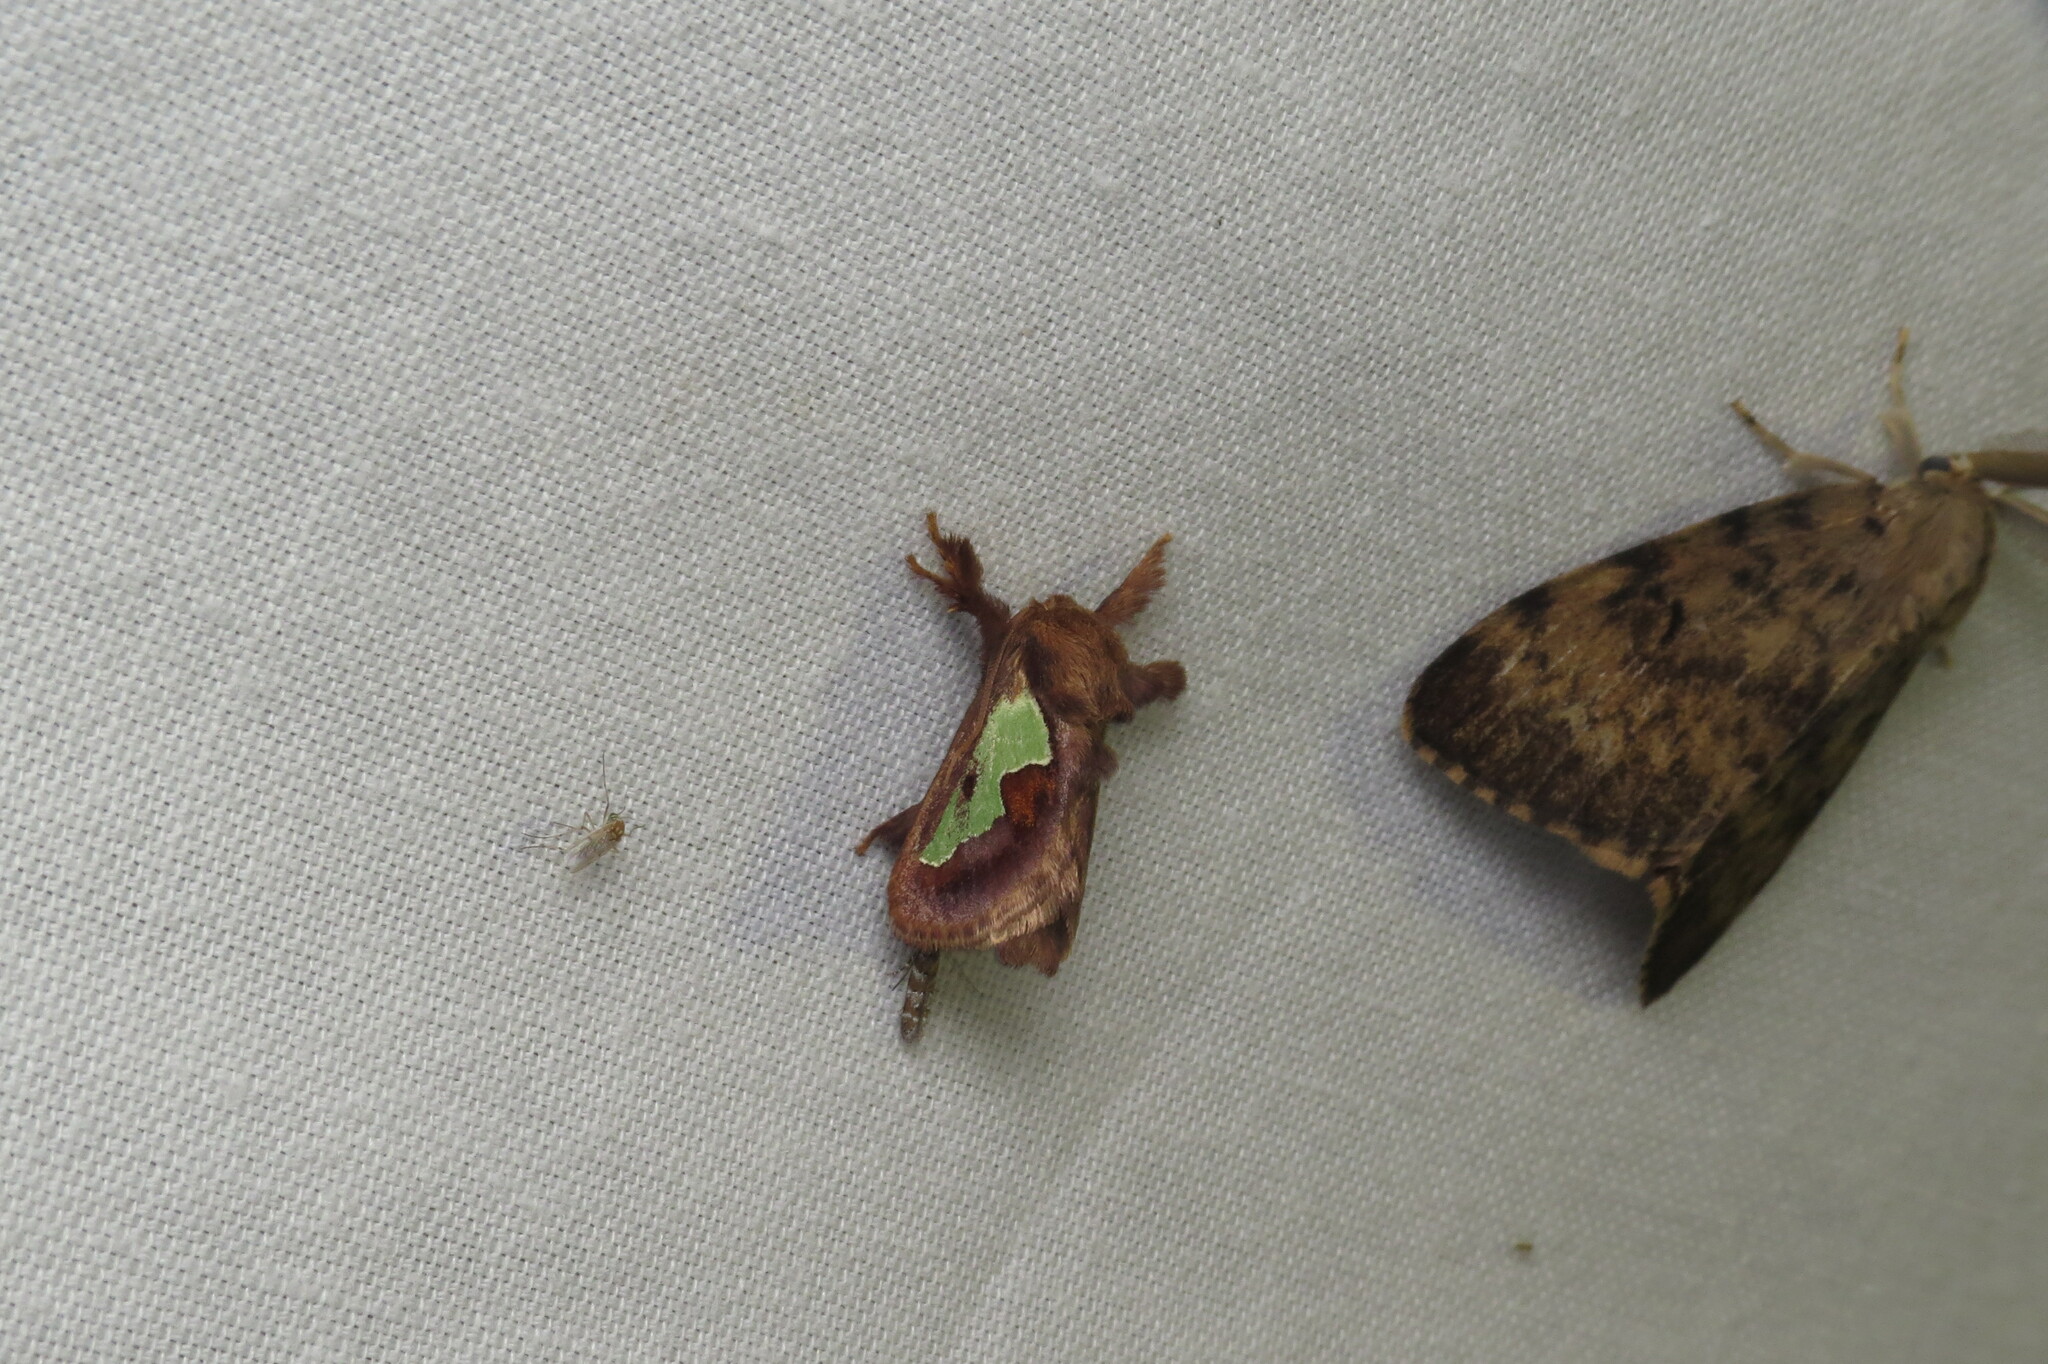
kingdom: Animalia
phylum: Arthropoda
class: Insecta
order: Lepidoptera
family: Limacodidae
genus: Euclea
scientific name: Euclea delphinii
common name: Spiny oak-slug moth
